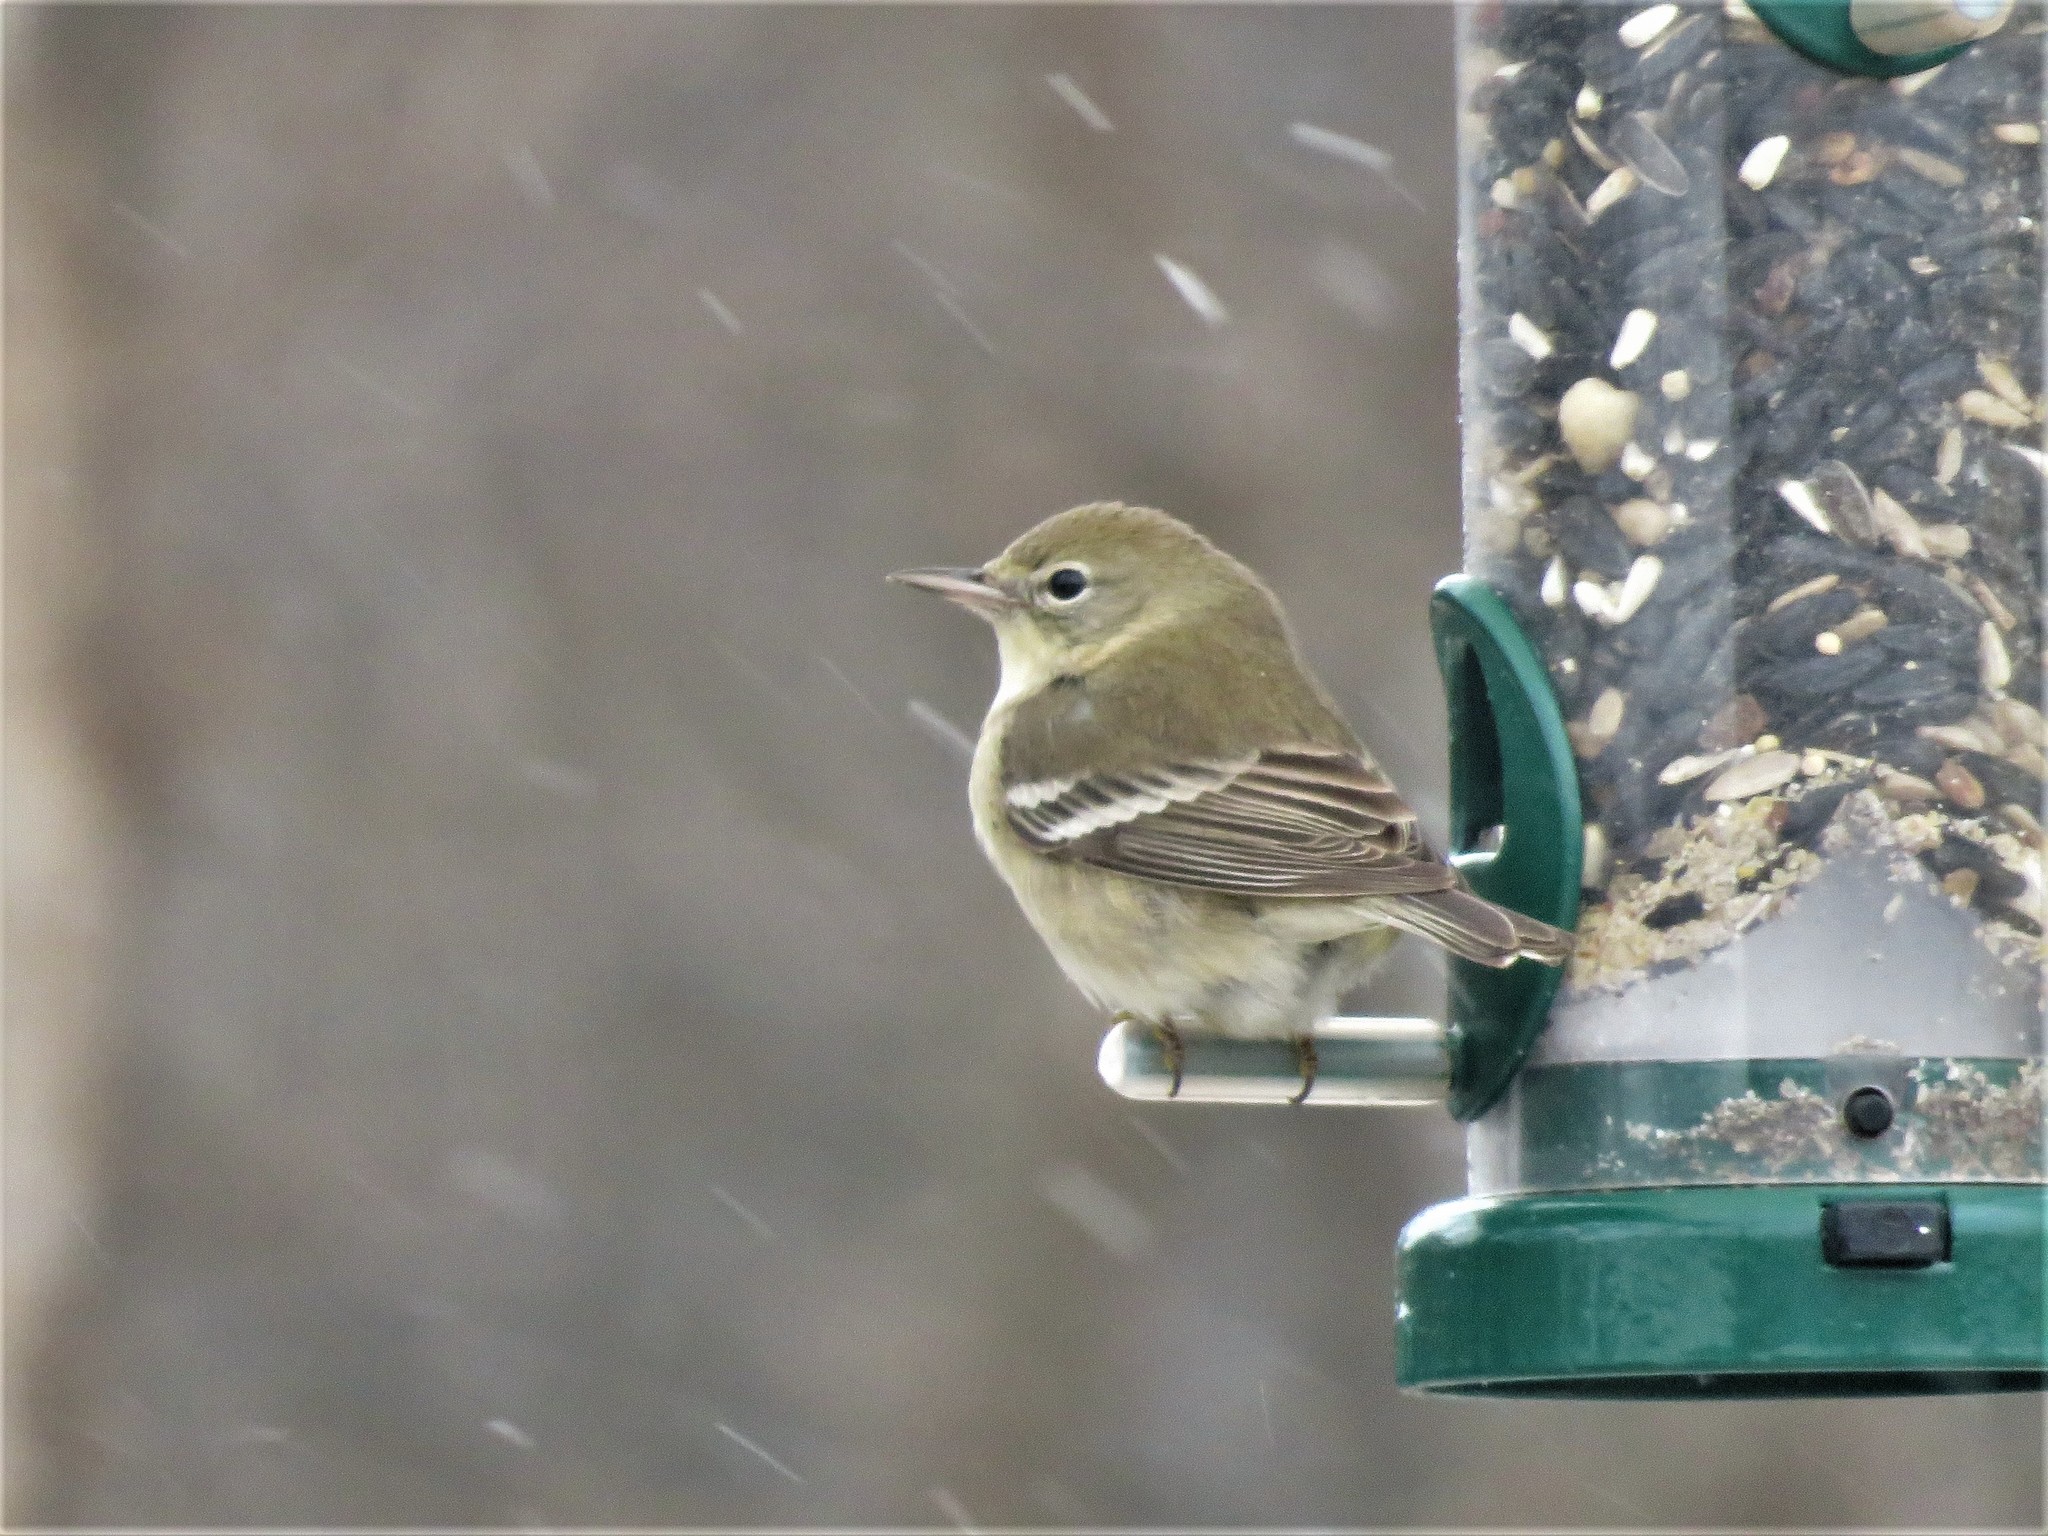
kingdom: Animalia
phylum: Chordata
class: Aves
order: Passeriformes
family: Parulidae
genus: Setophaga
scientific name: Setophaga pinus
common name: Pine warbler
